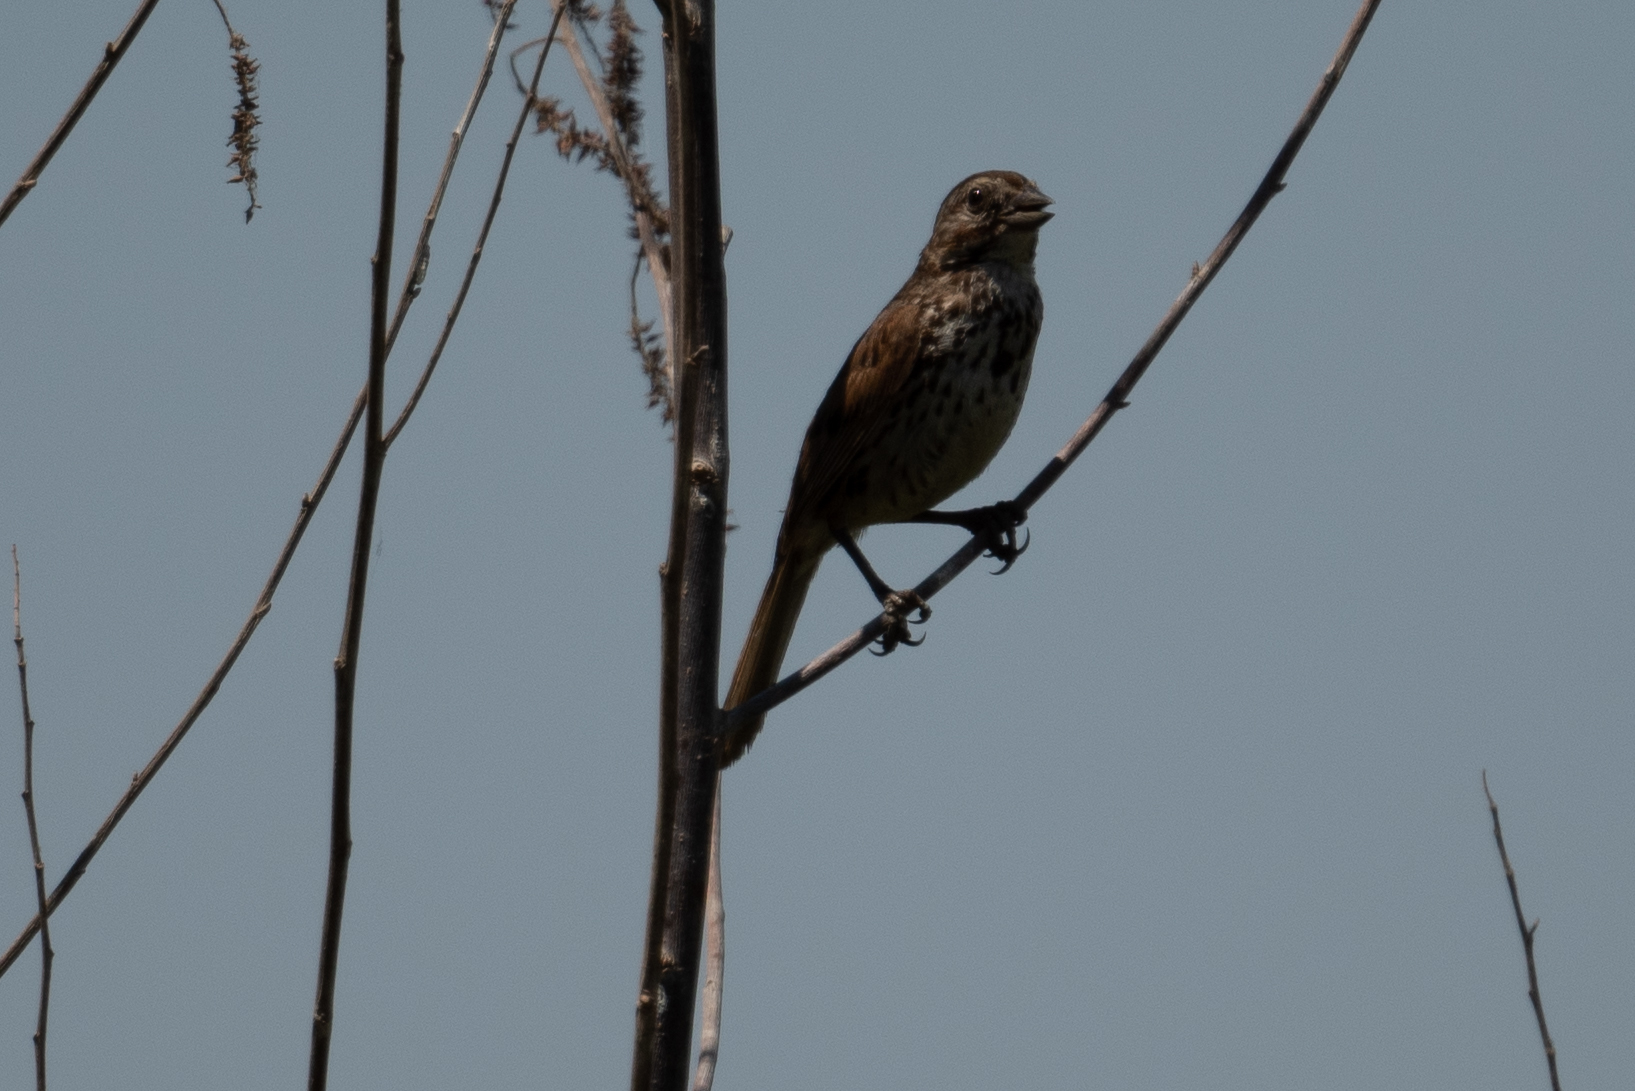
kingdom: Animalia
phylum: Chordata
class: Aves
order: Passeriformes
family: Passerellidae
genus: Melospiza
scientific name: Melospiza melodia
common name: Song sparrow
